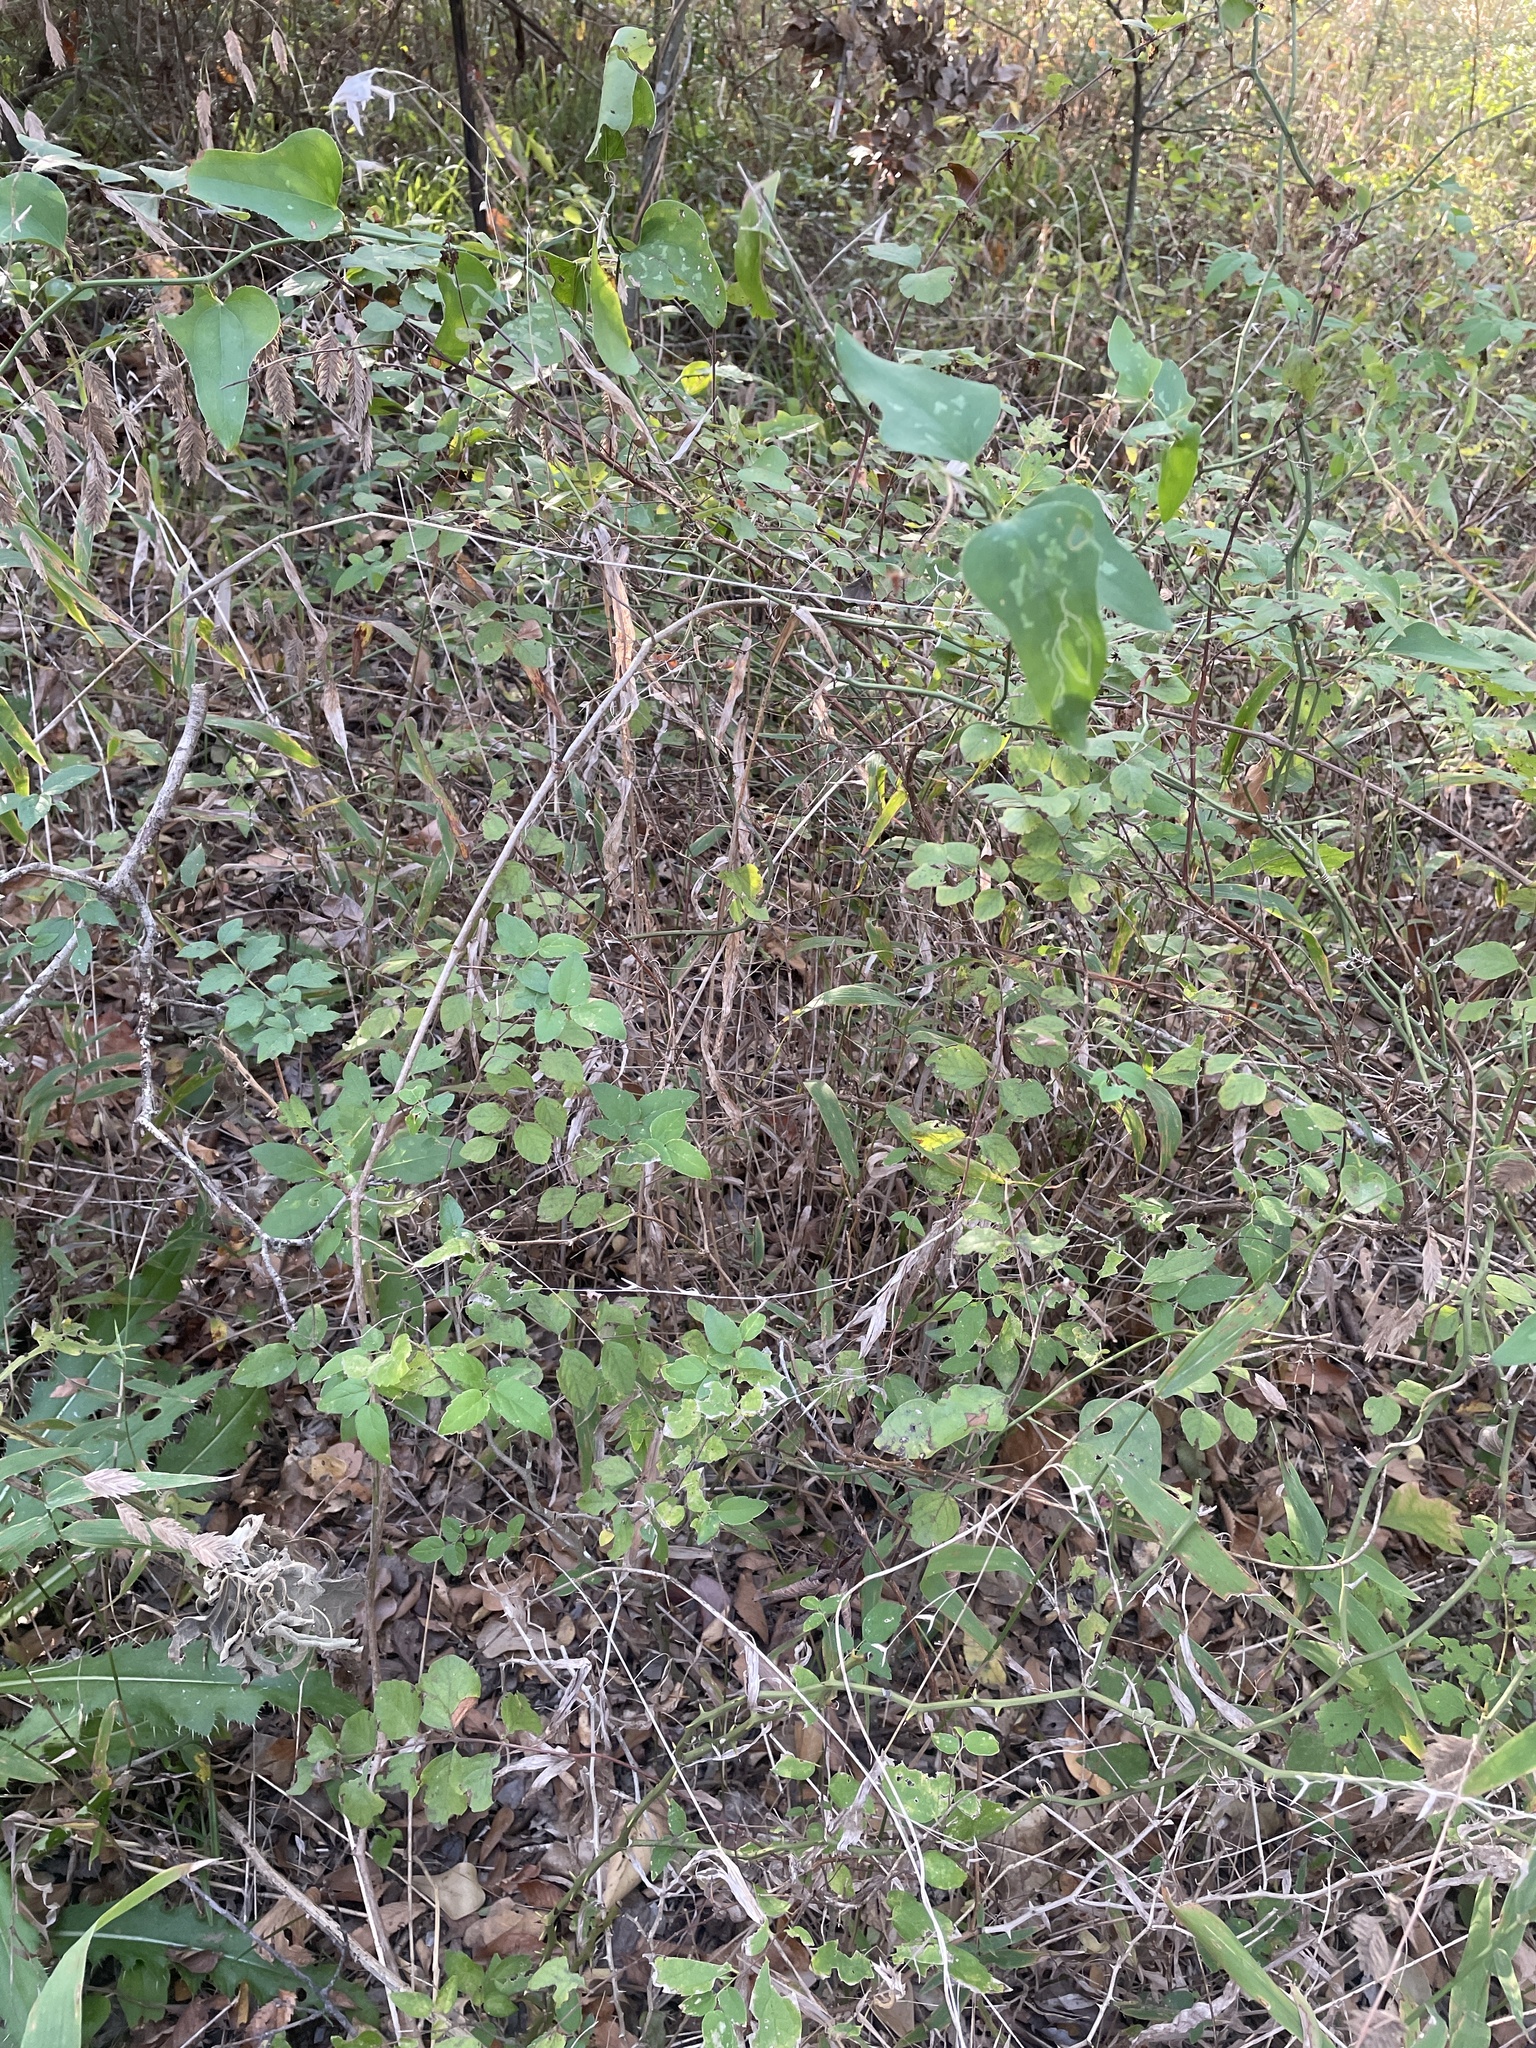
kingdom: Plantae
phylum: Tracheophyta
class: Magnoliopsida
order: Dipsacales
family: Caprifoliaceae
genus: Symphoricarpos
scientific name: Symphoricarpos orbiculatus
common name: Coralberry
